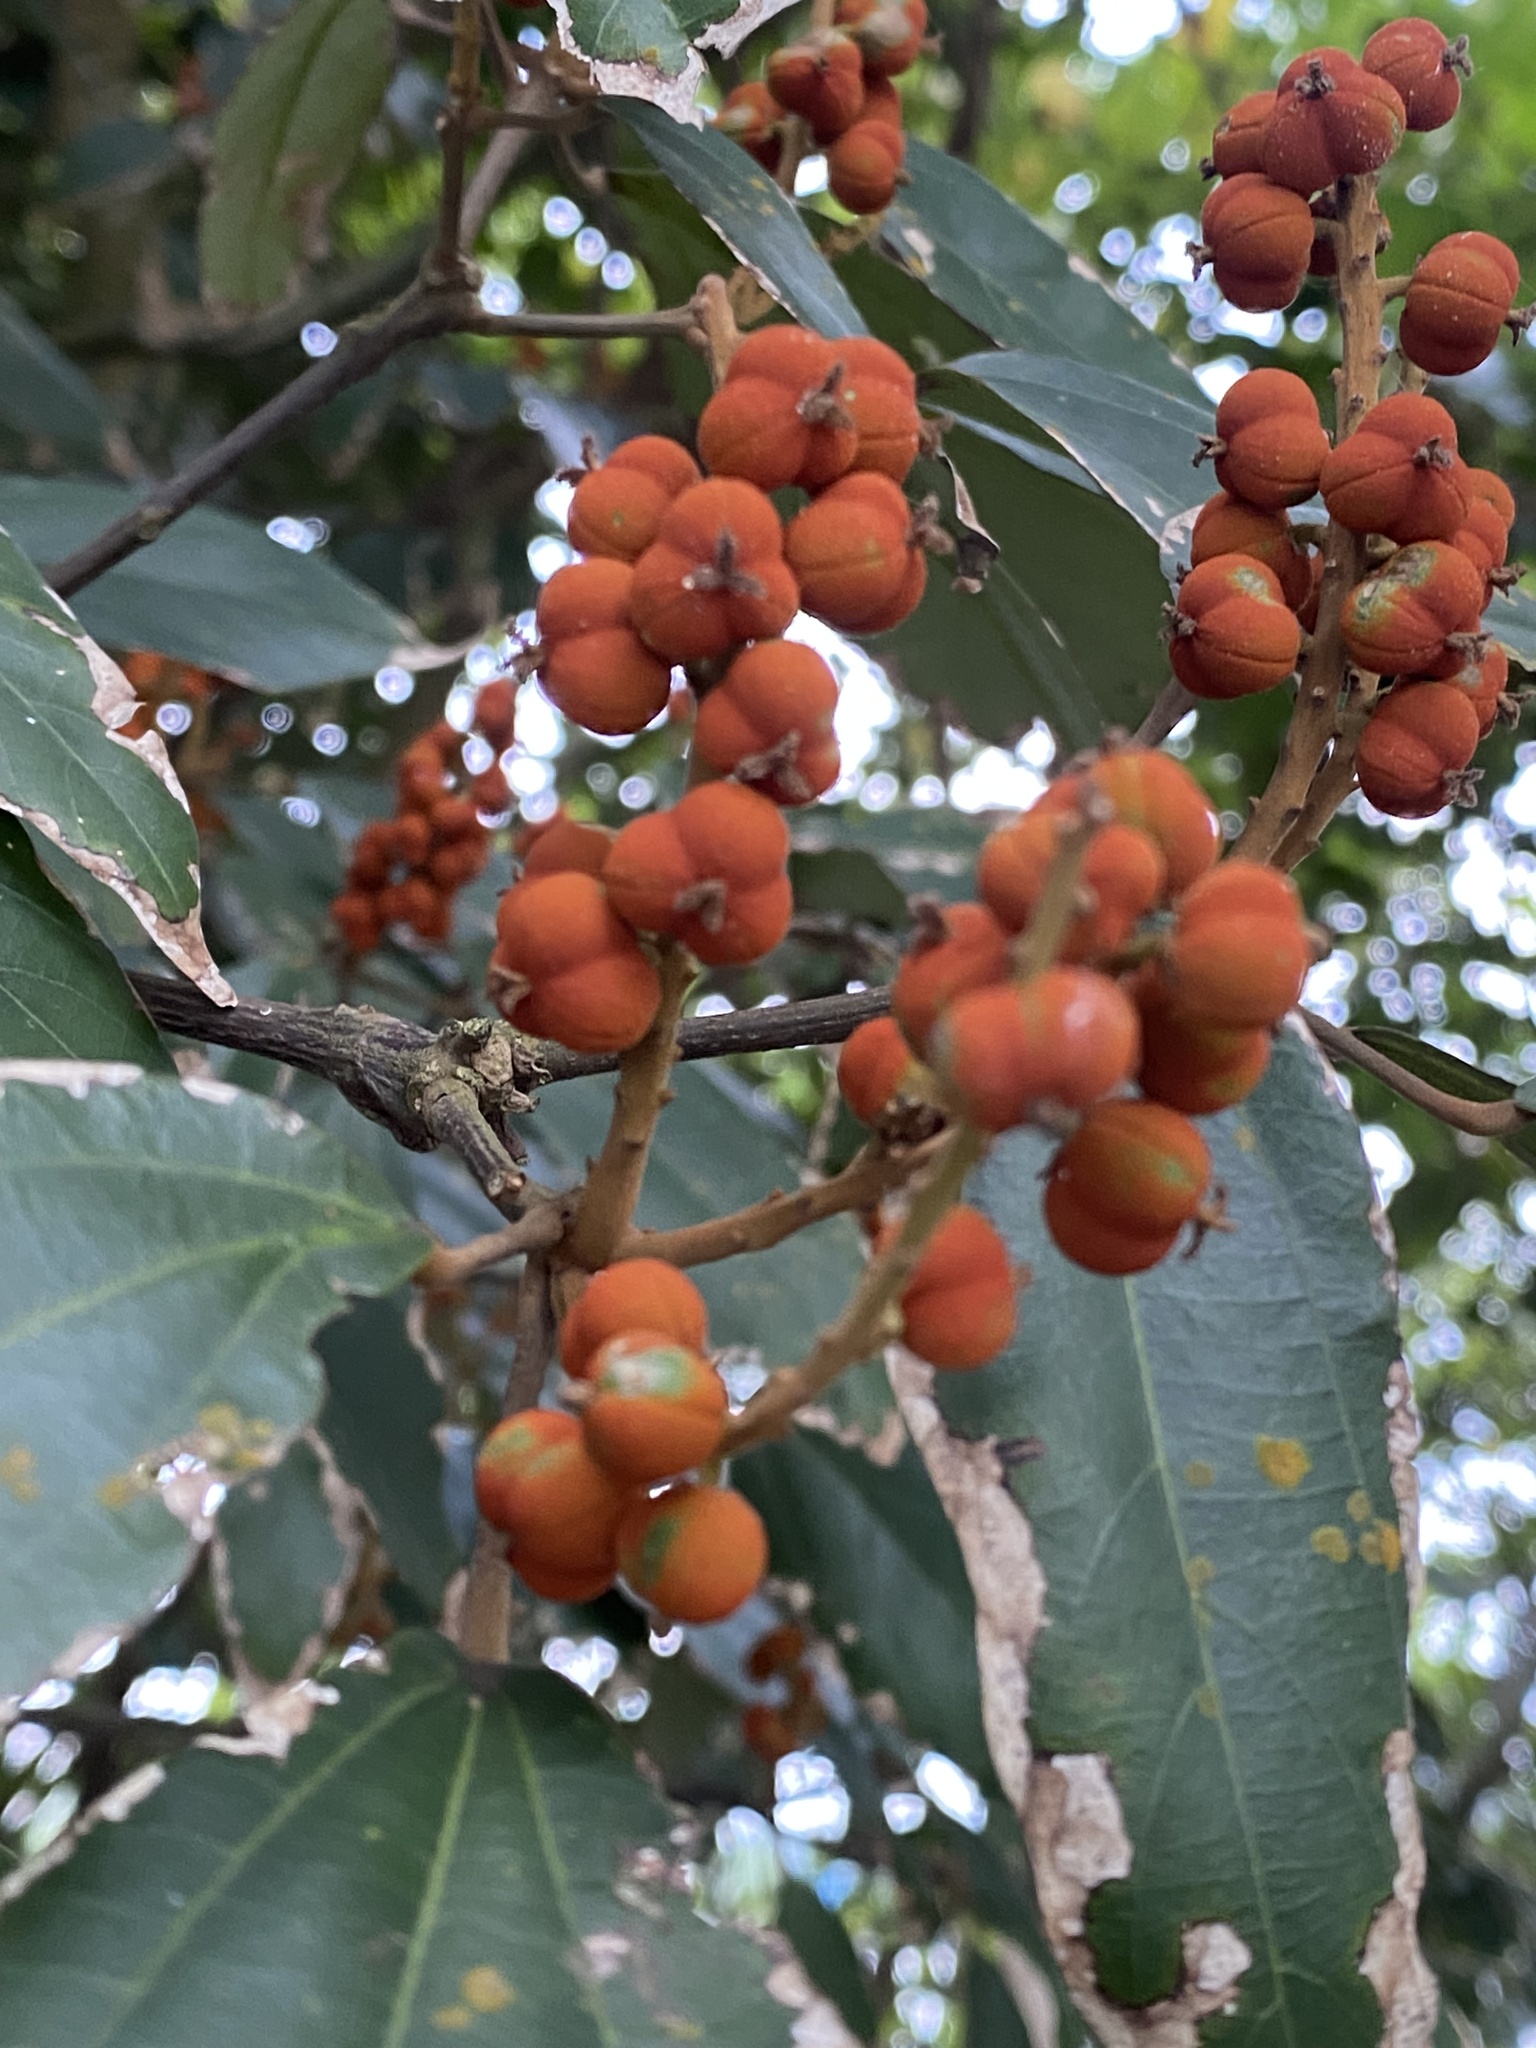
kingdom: Plantae
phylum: Tracheophyta
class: Magnoliopsida
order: Malpighiales
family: Euphorbiaceae
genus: Mallotus
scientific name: Mallotus philippensis
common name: Kamala tree
